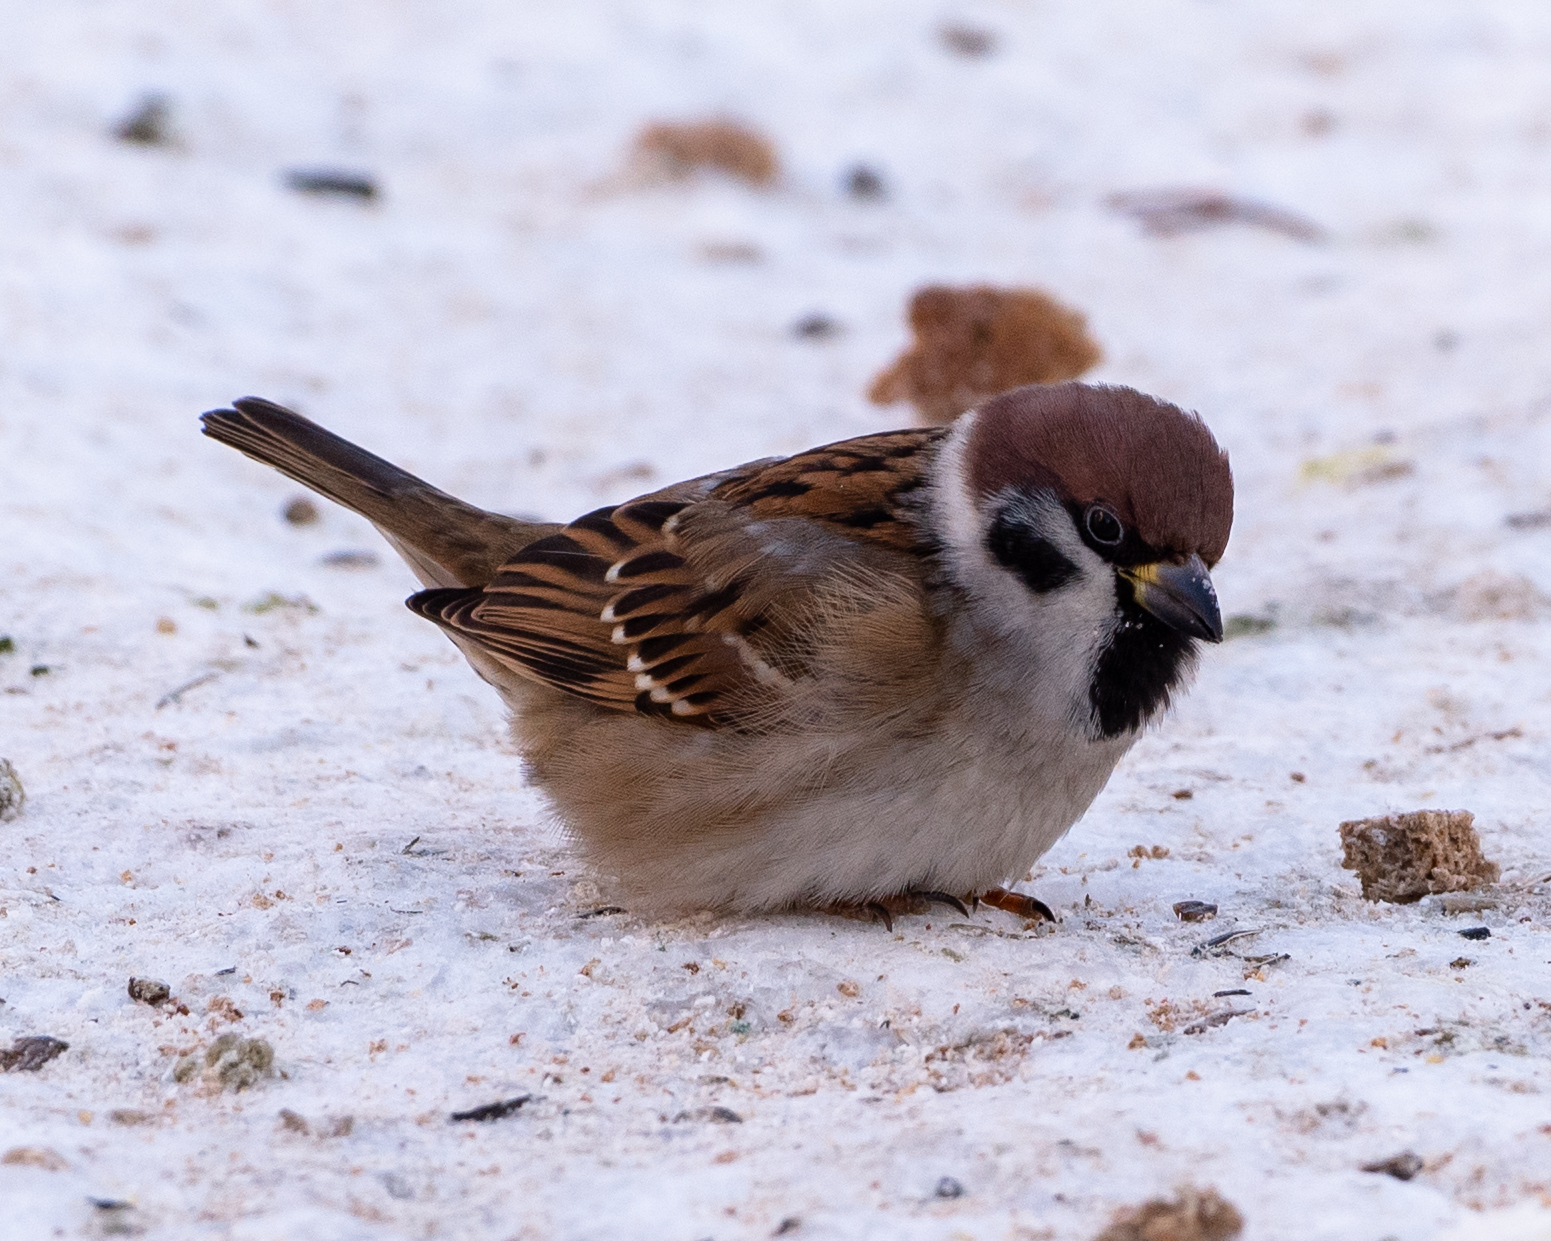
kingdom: Animalia
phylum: Chordata
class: Aves
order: Passeriformes
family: Passeridae
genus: Passer
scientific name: Passer montanus
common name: Eurasian tree sparrow
